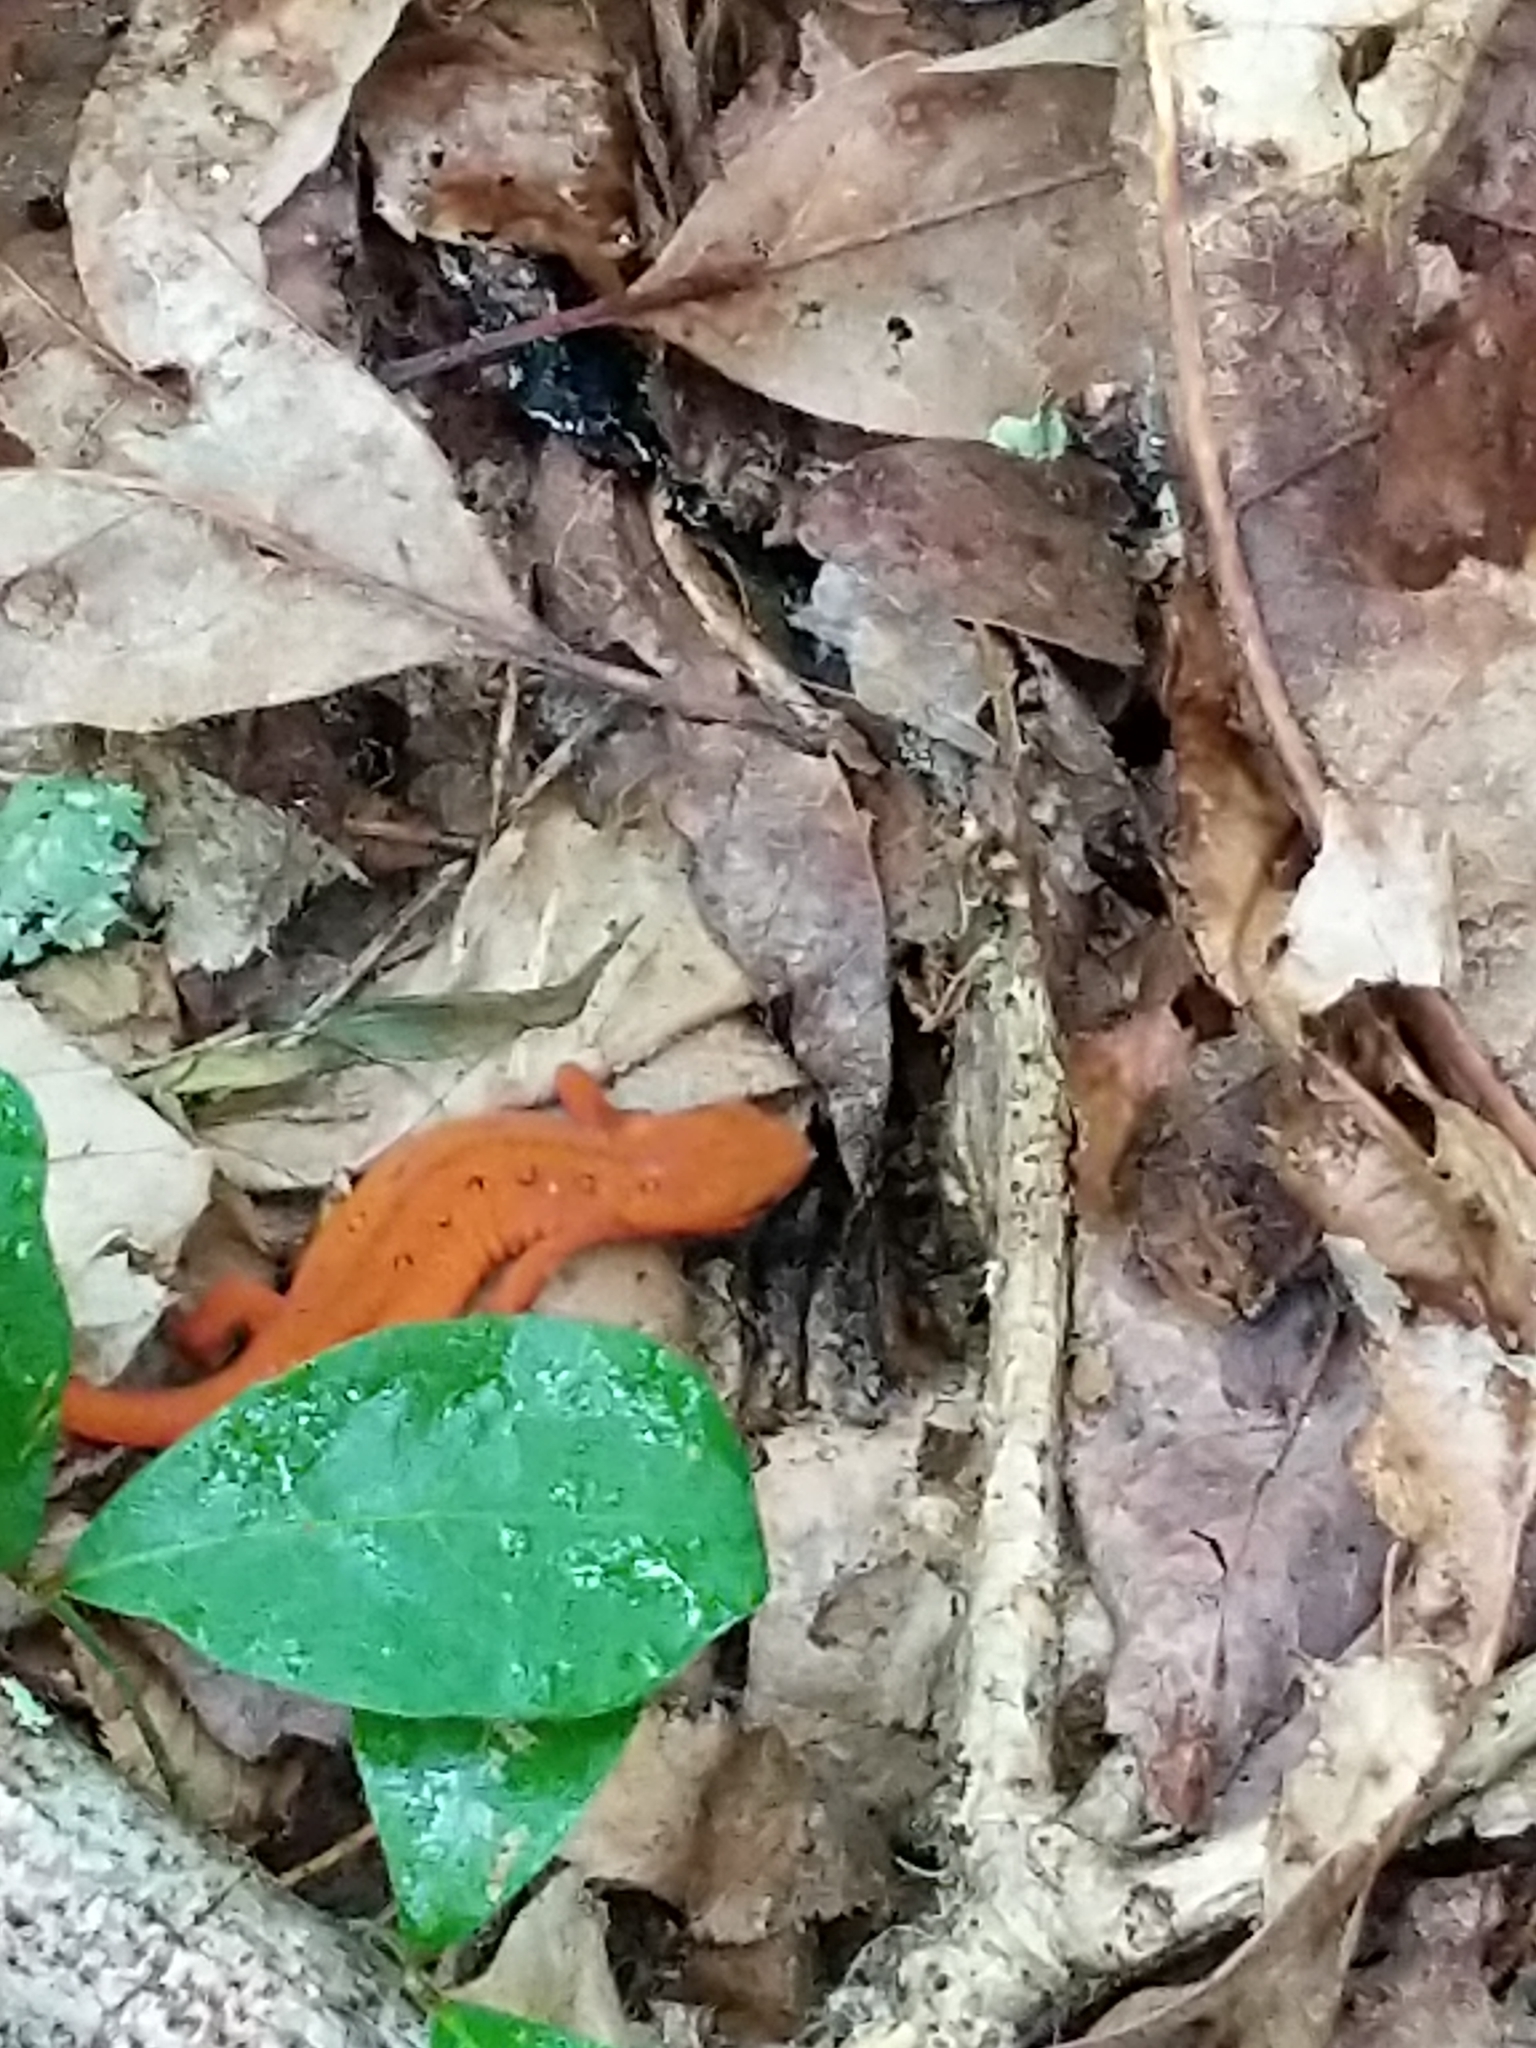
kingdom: Animalia
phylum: Chordata
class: Amphibia
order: Caudata
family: Salamandridae
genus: Notophthalmus
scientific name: Notophthalmus viridescens
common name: Eastern newt
